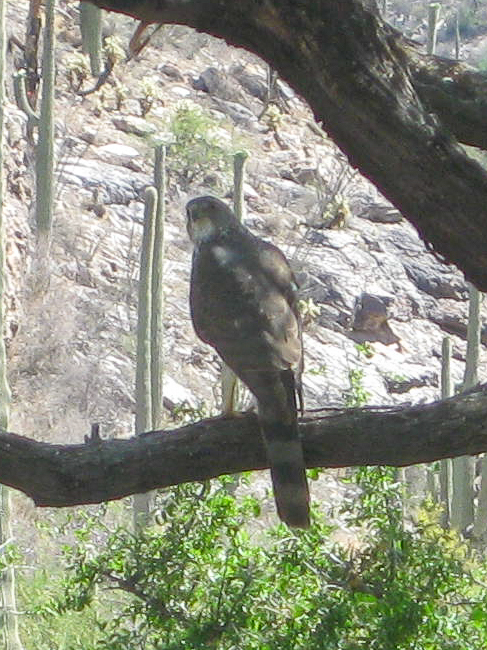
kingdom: Animalia
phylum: Chordata
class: Aves
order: Accipitriformes
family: Accipitridae
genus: Accipiter
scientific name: Accipiter cooperii
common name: Cooper's hawk
